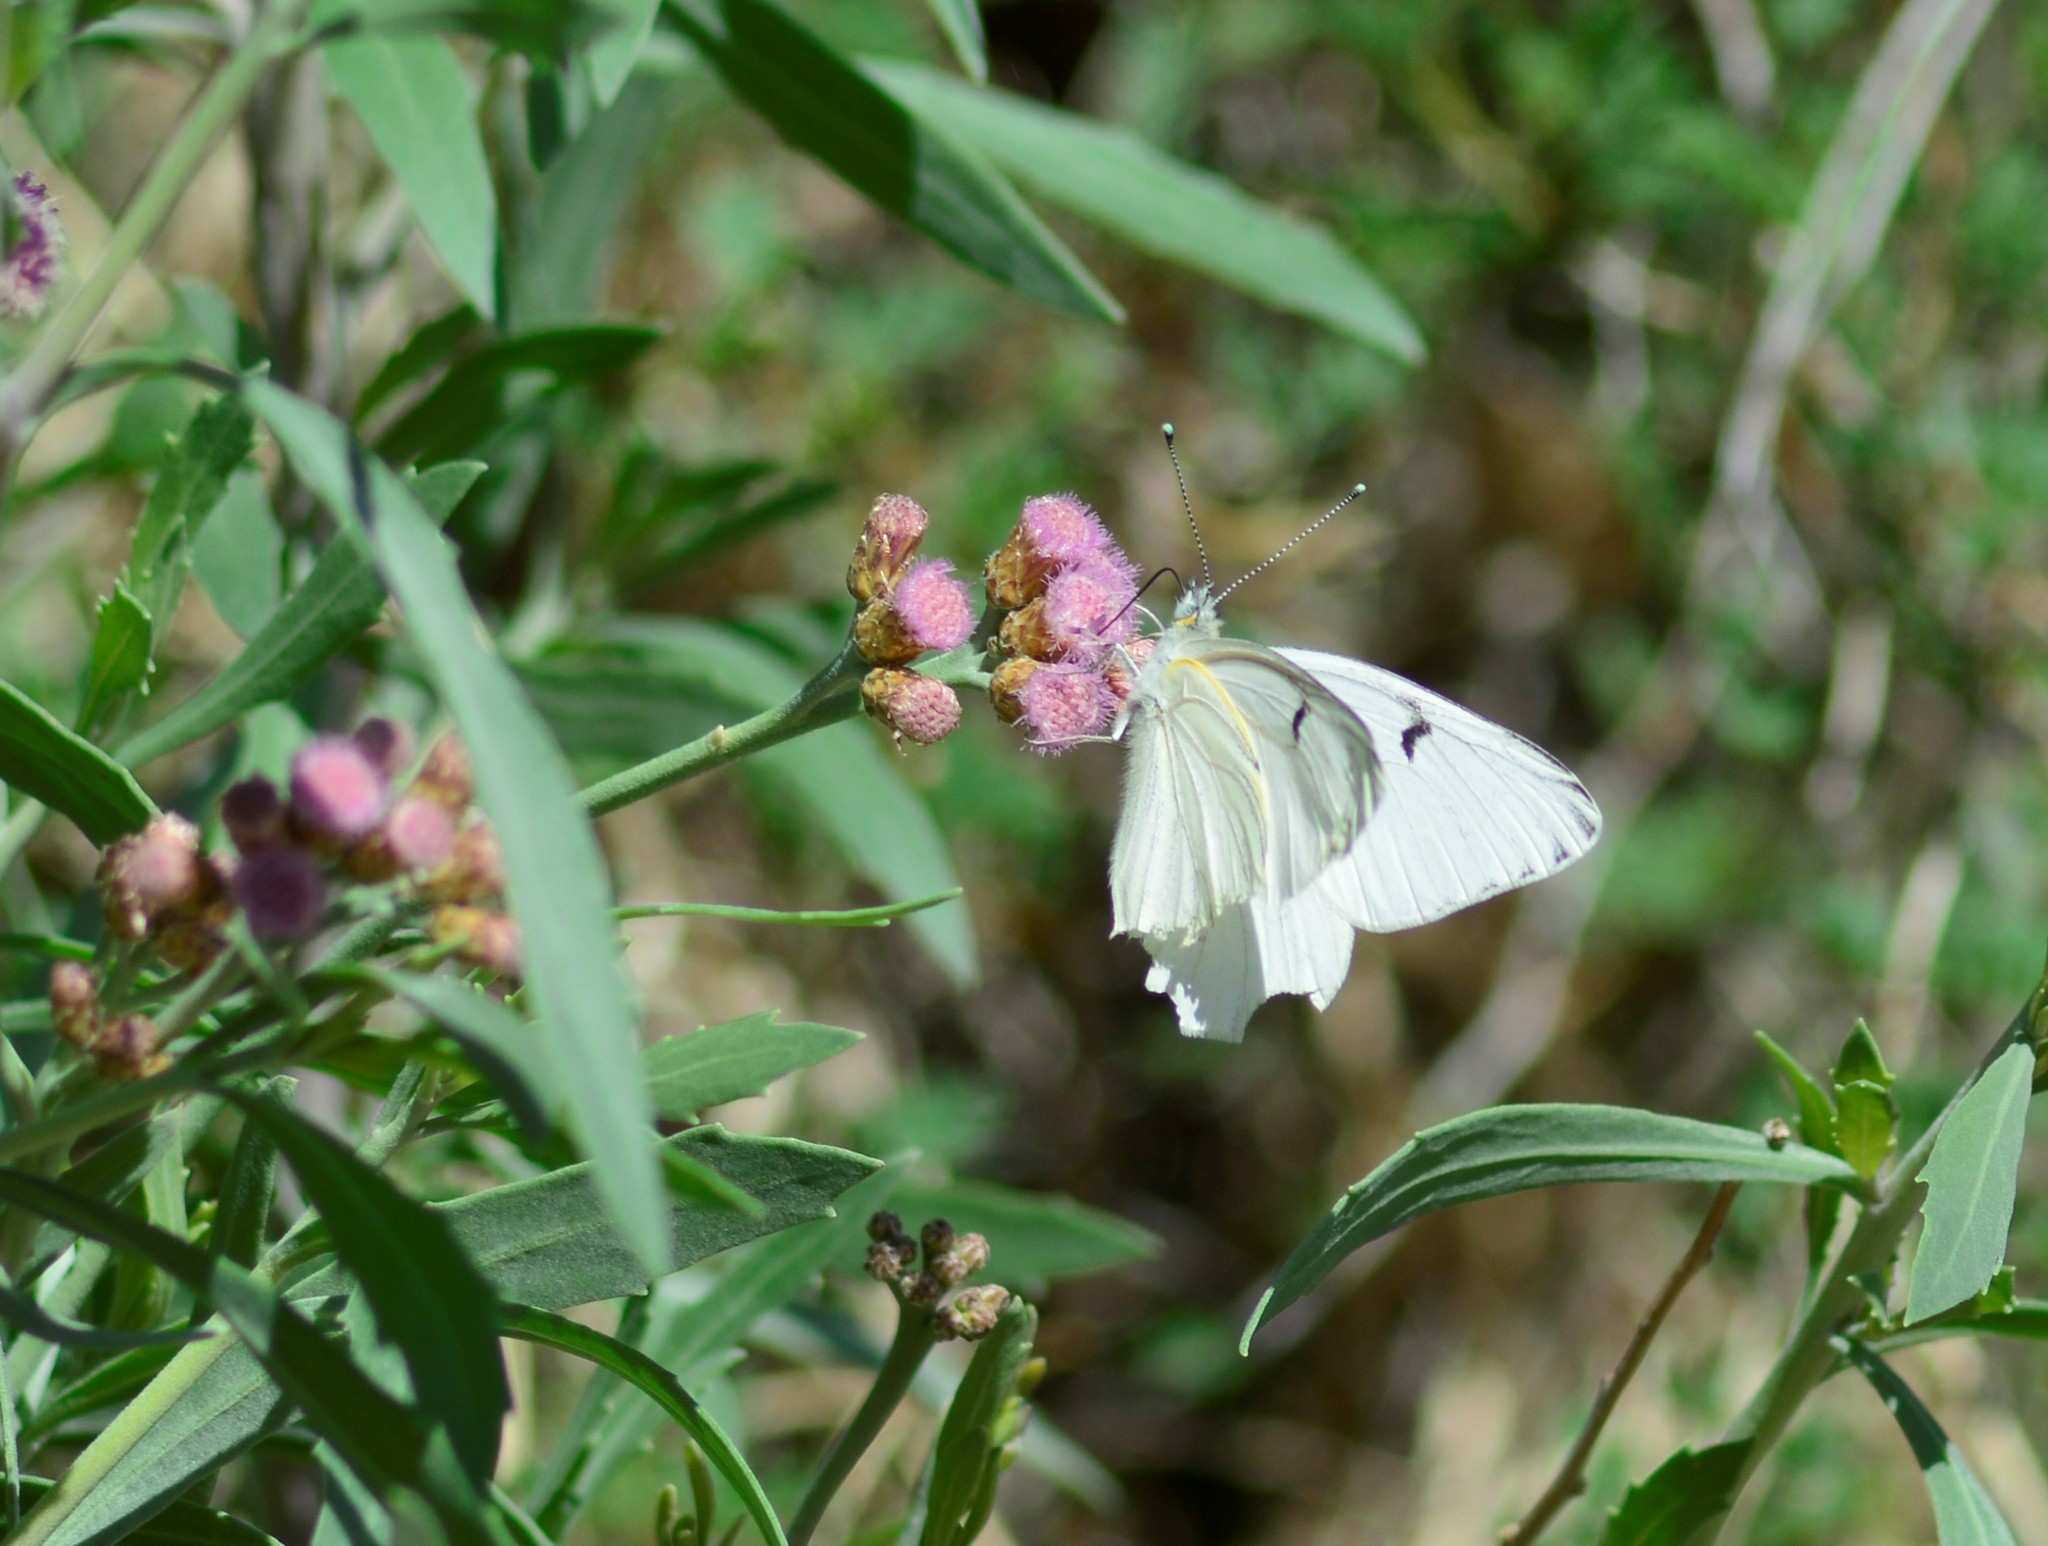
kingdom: Animalia
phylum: Arthropoda
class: Insecta
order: Lepidoptera
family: Pieridae
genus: Tatochila
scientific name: Tatochila mercedis
